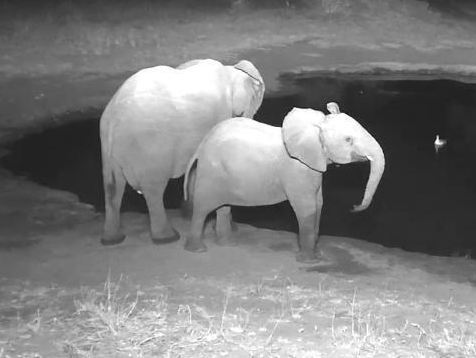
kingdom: Animalia
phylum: Chordata
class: Mammalia
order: Proboscidea
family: Elephantidae
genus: Loxodonta
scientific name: Loxodonta africana
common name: African elephant
